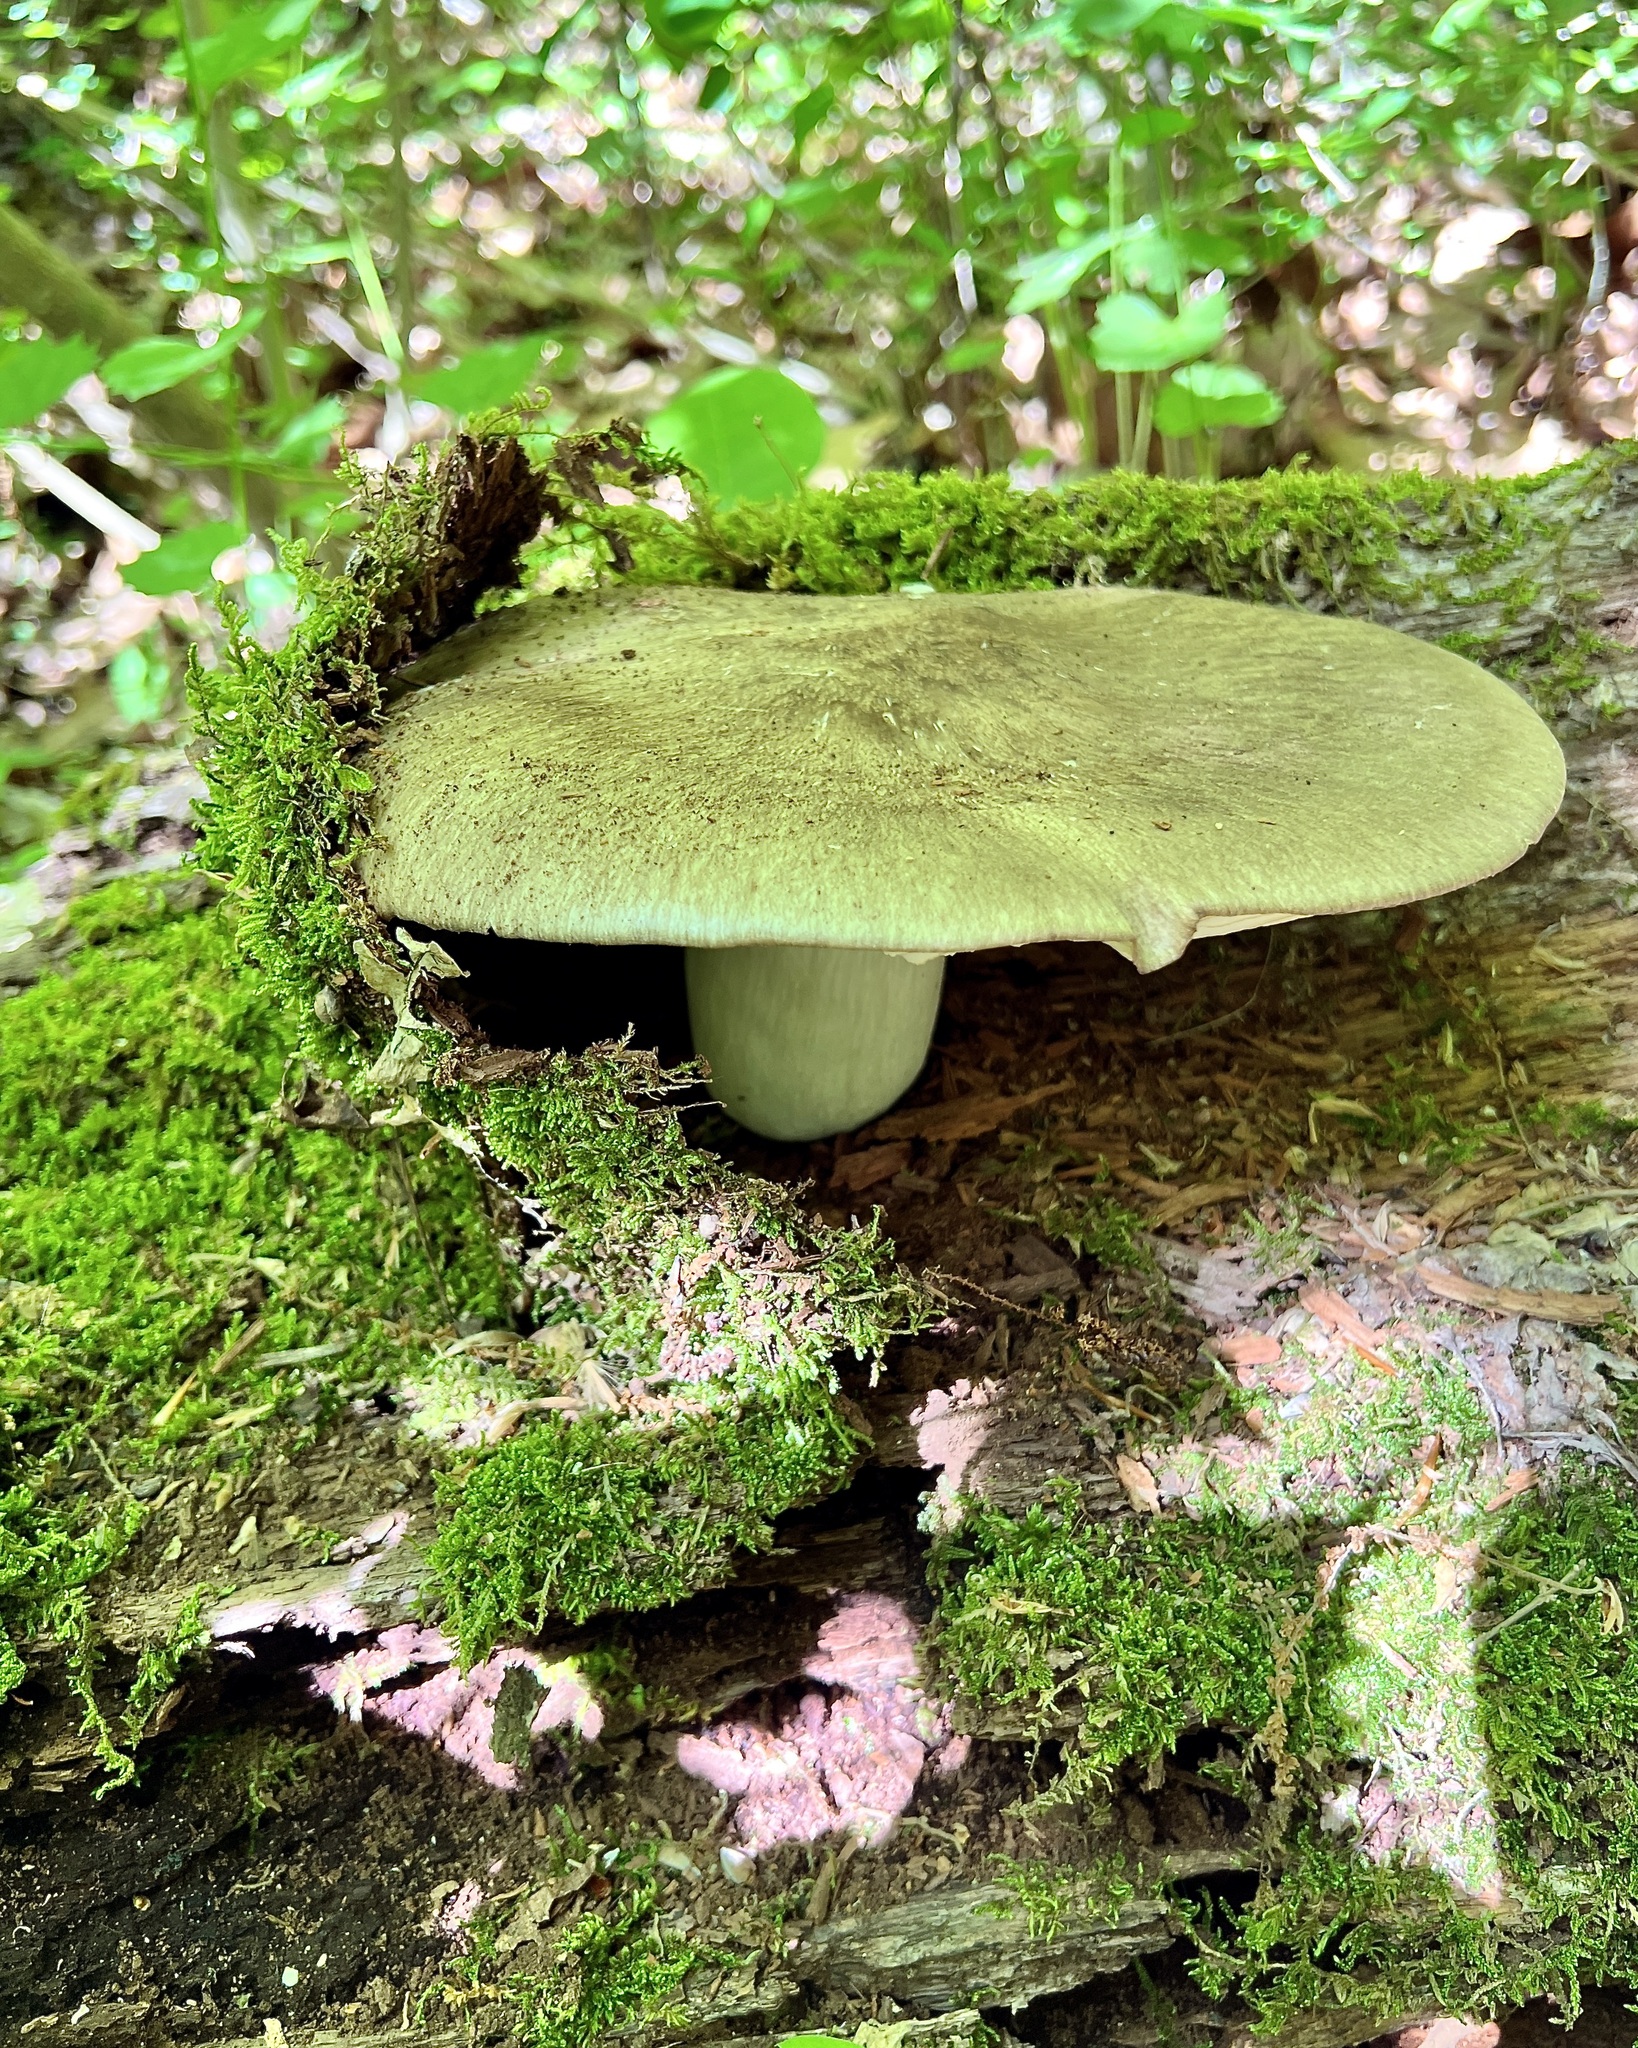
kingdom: Fungi
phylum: Basidiomycota
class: Agaricomycetes
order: Agaricales
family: Tricholomataceae
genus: Megacollybia
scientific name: Megacollybia rodmanii
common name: Eastern american platterful mushroom
